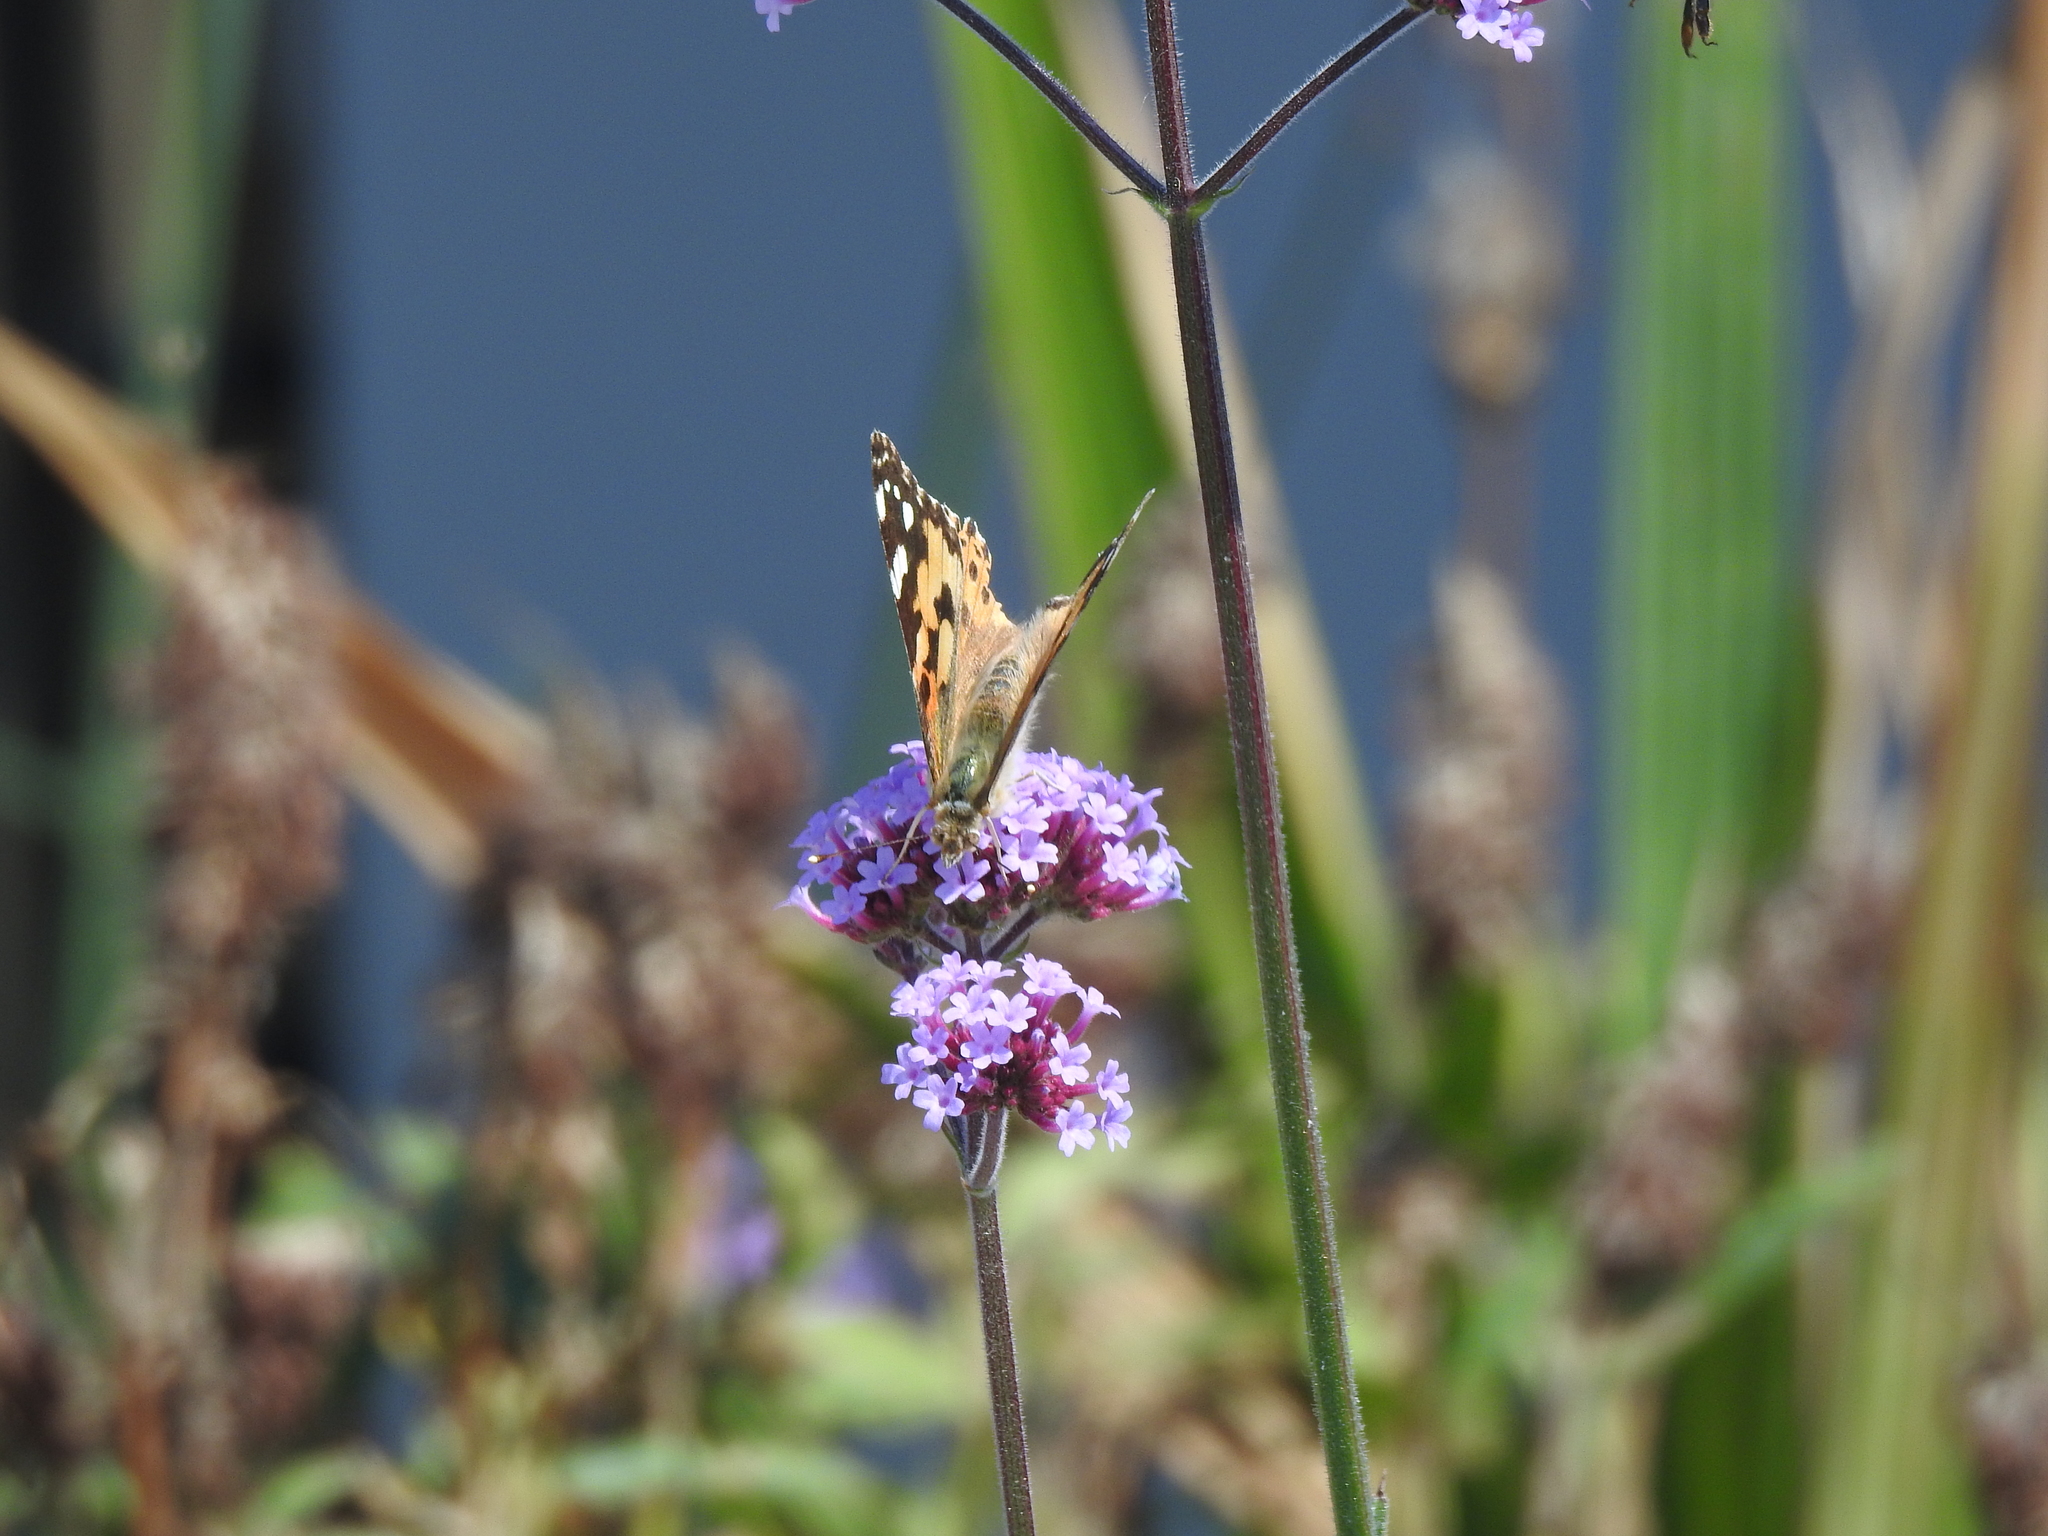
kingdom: Animalia
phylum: Arthropoda
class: Insecta
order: Lepidoptera
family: Nymphalidae
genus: Vanessa
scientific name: Vanessa cardui
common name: Painted lady
